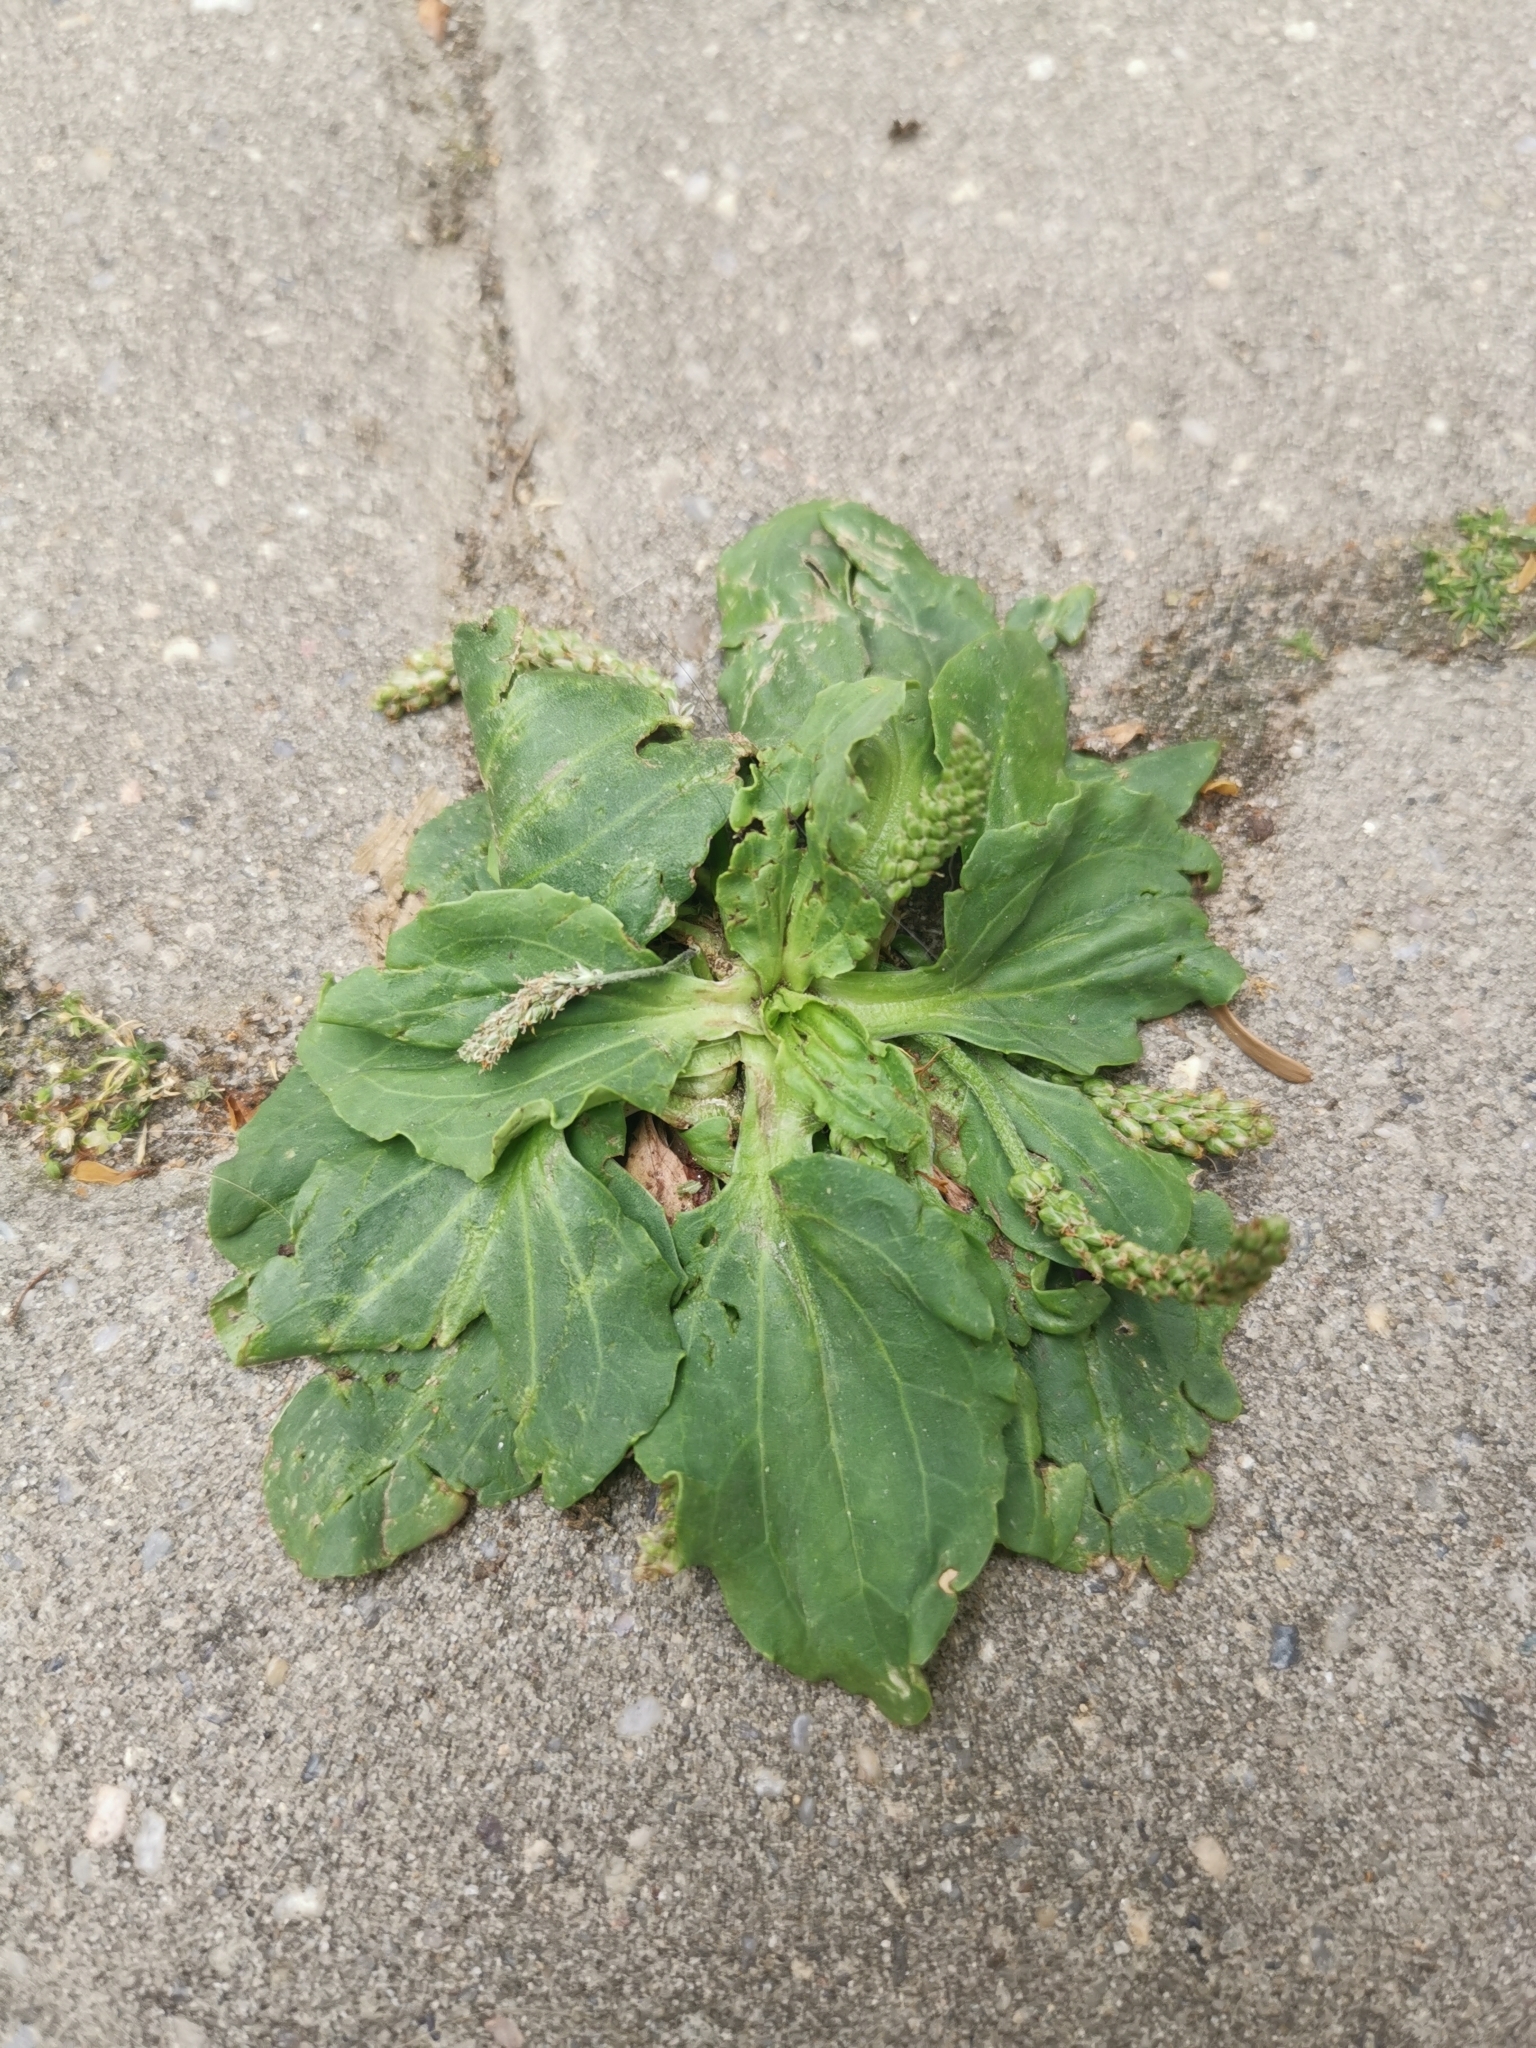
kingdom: Plantae
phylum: Tracheophyta
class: Magnoliopsida
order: Lamiales
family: Plantaginaceae
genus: Plantago
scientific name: Plantago major
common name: Common plantain
